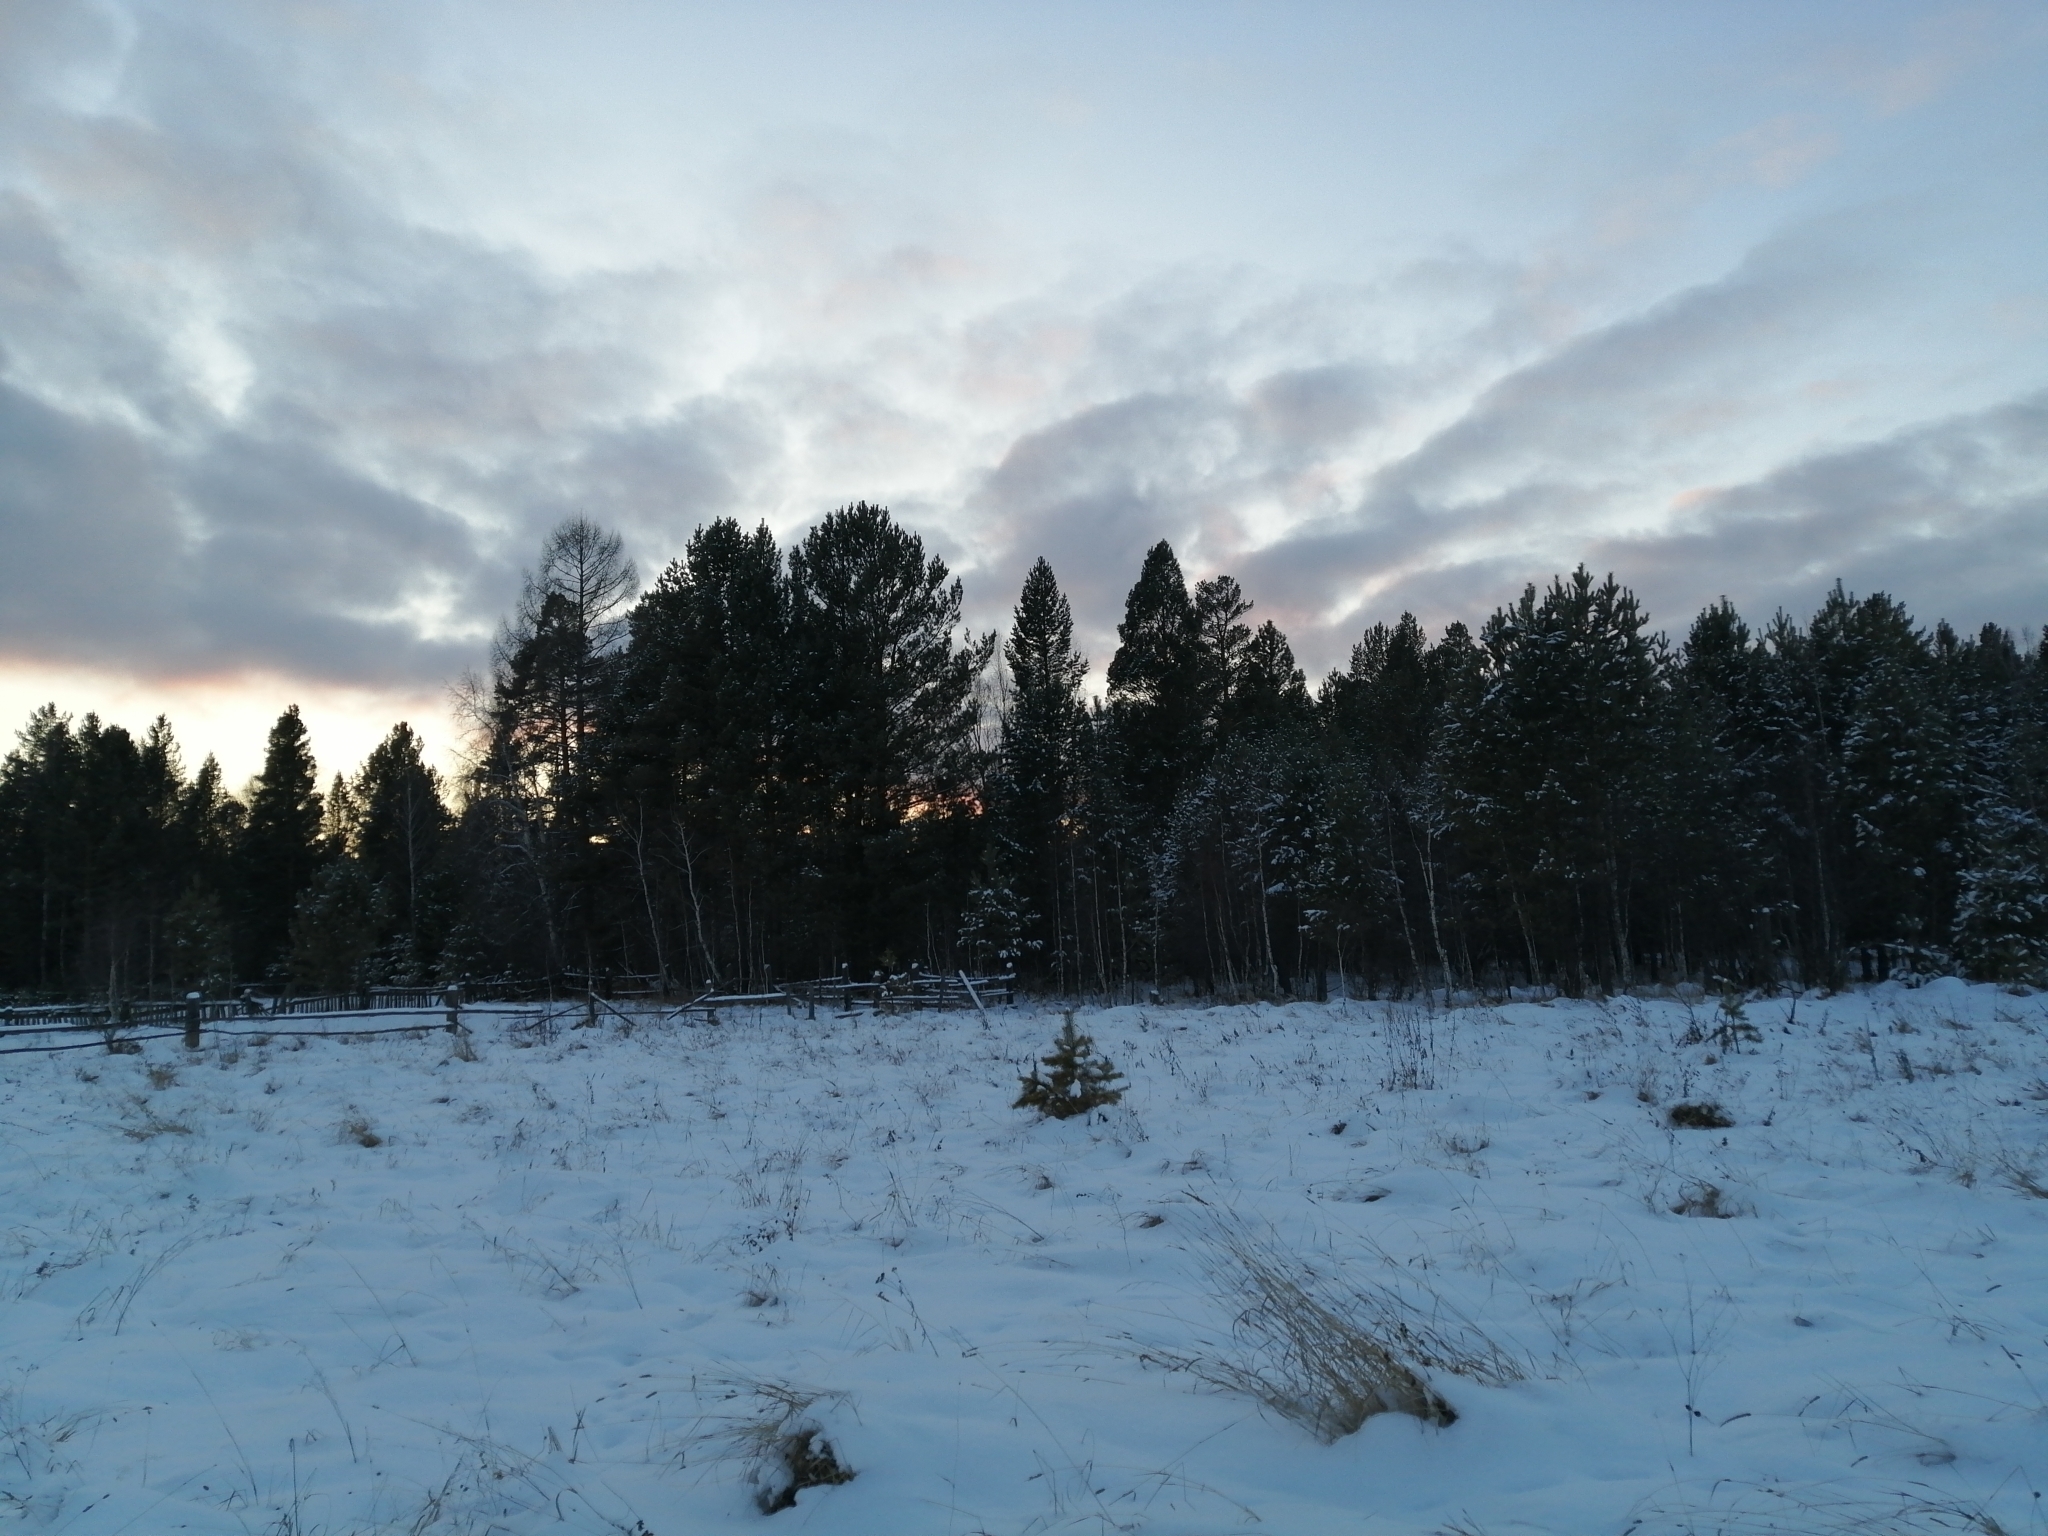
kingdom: Plantae
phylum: Tracheophyta
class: Pinopsida
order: Pinales
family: Pinaceae
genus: Pinus
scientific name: Pinus sylvestris
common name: Scots pine
